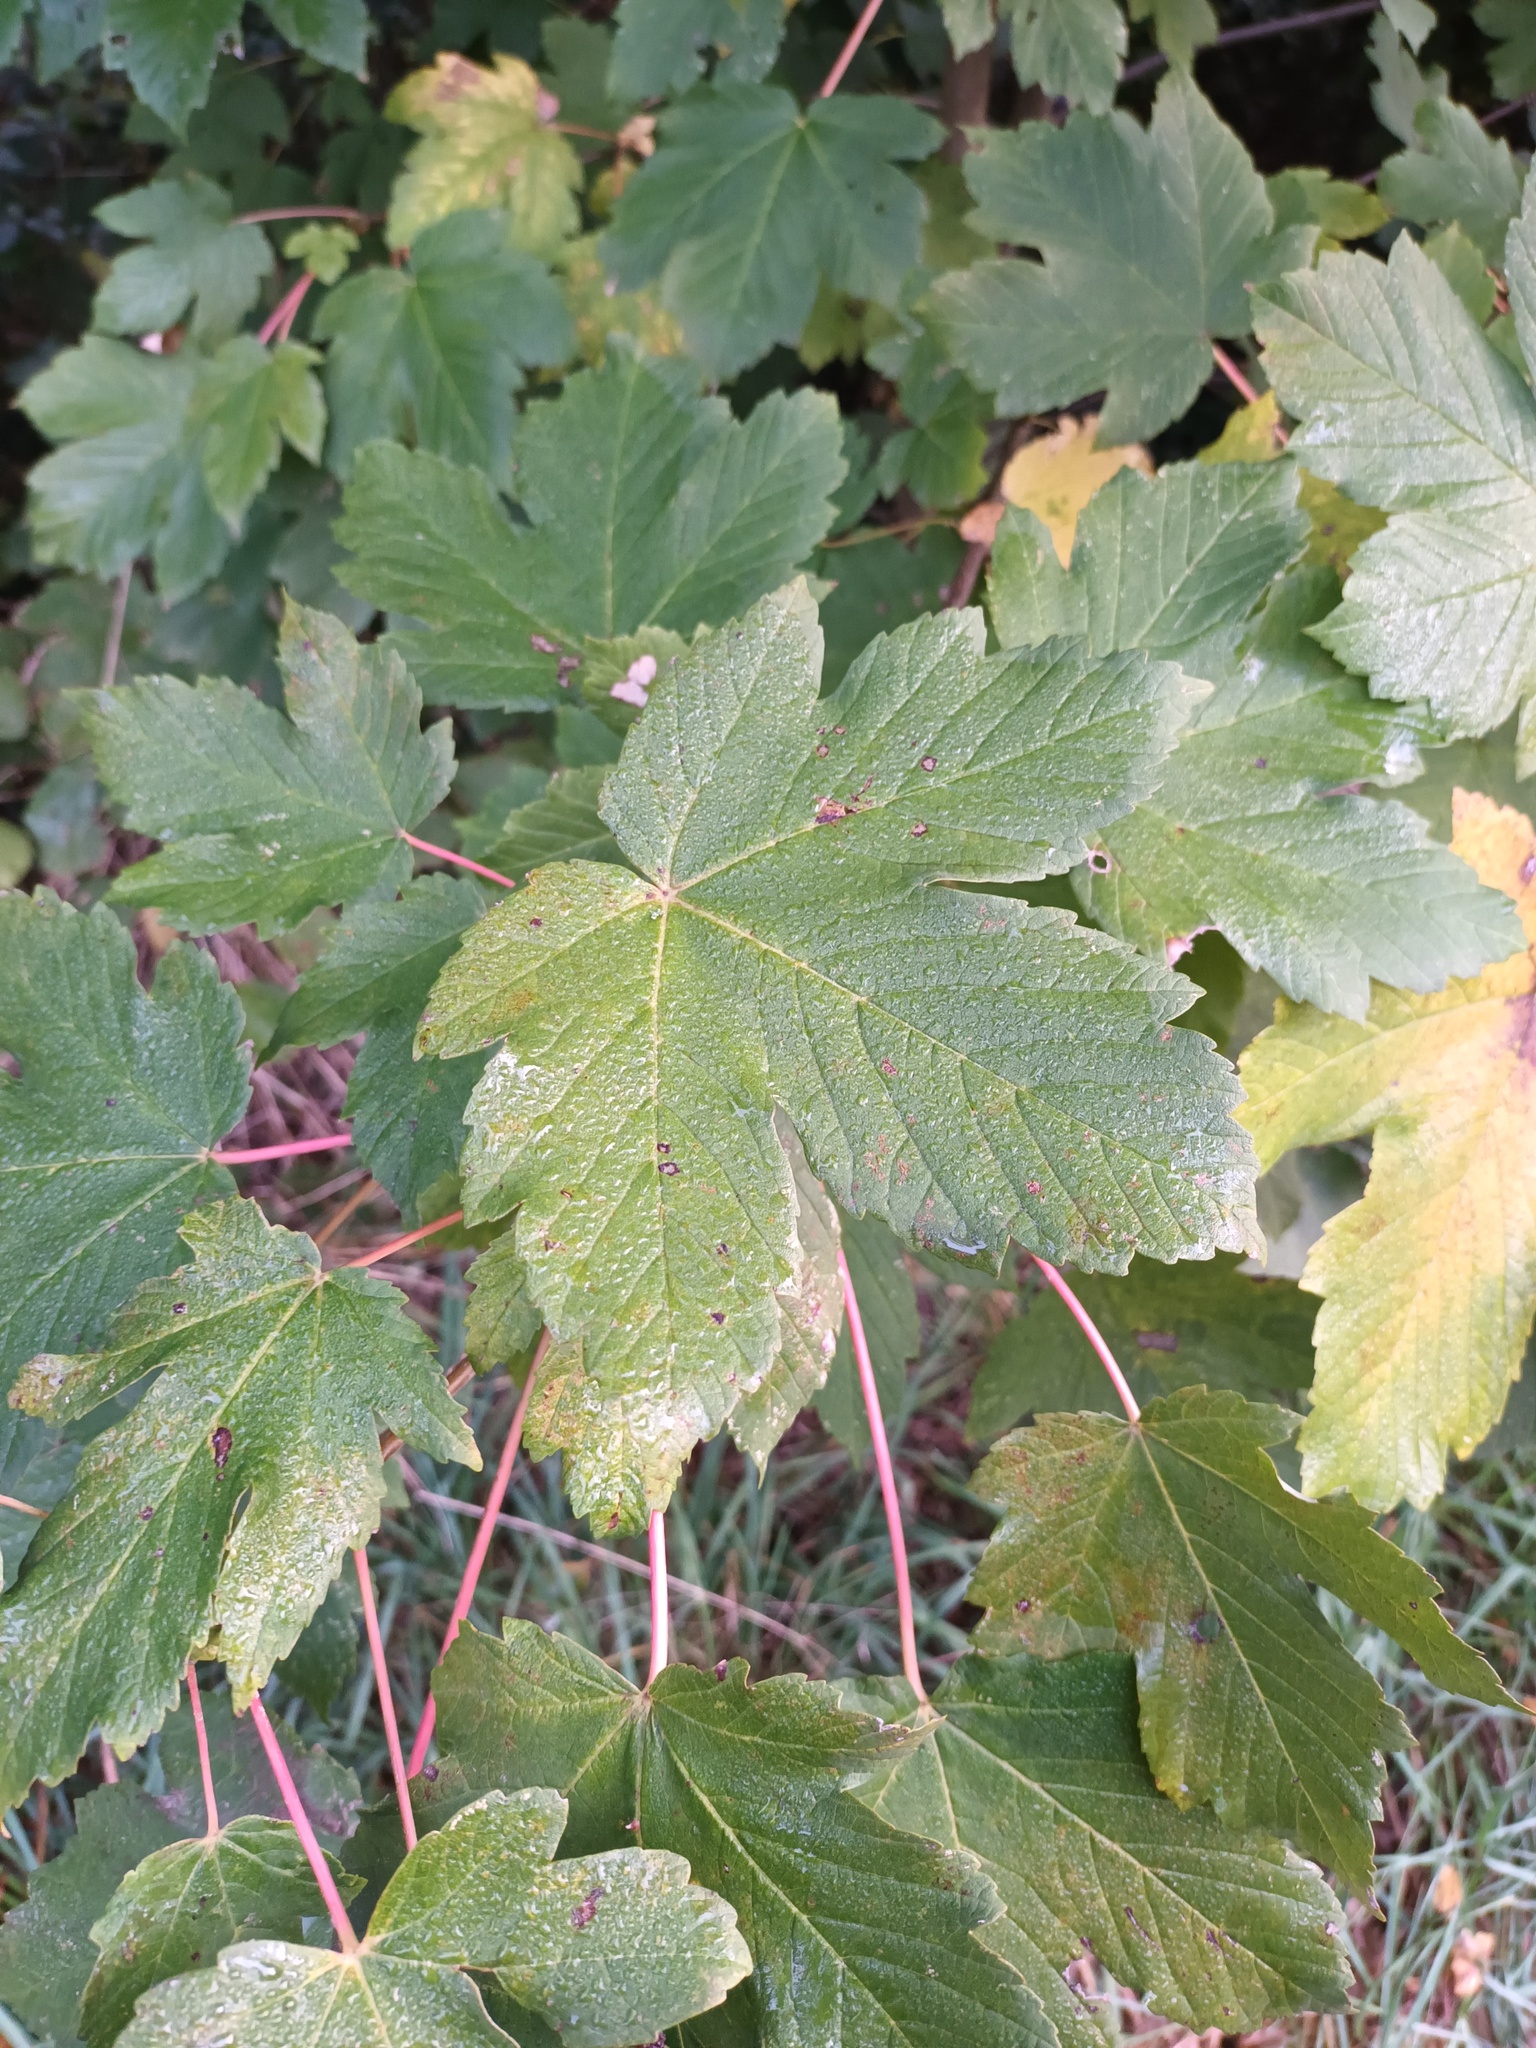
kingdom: Plantae
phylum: Tracheophyta
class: Magnoliopsida
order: Sapindales
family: Sapindaceae
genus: Acer
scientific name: Acer pseudoplatanus
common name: Sycamore
